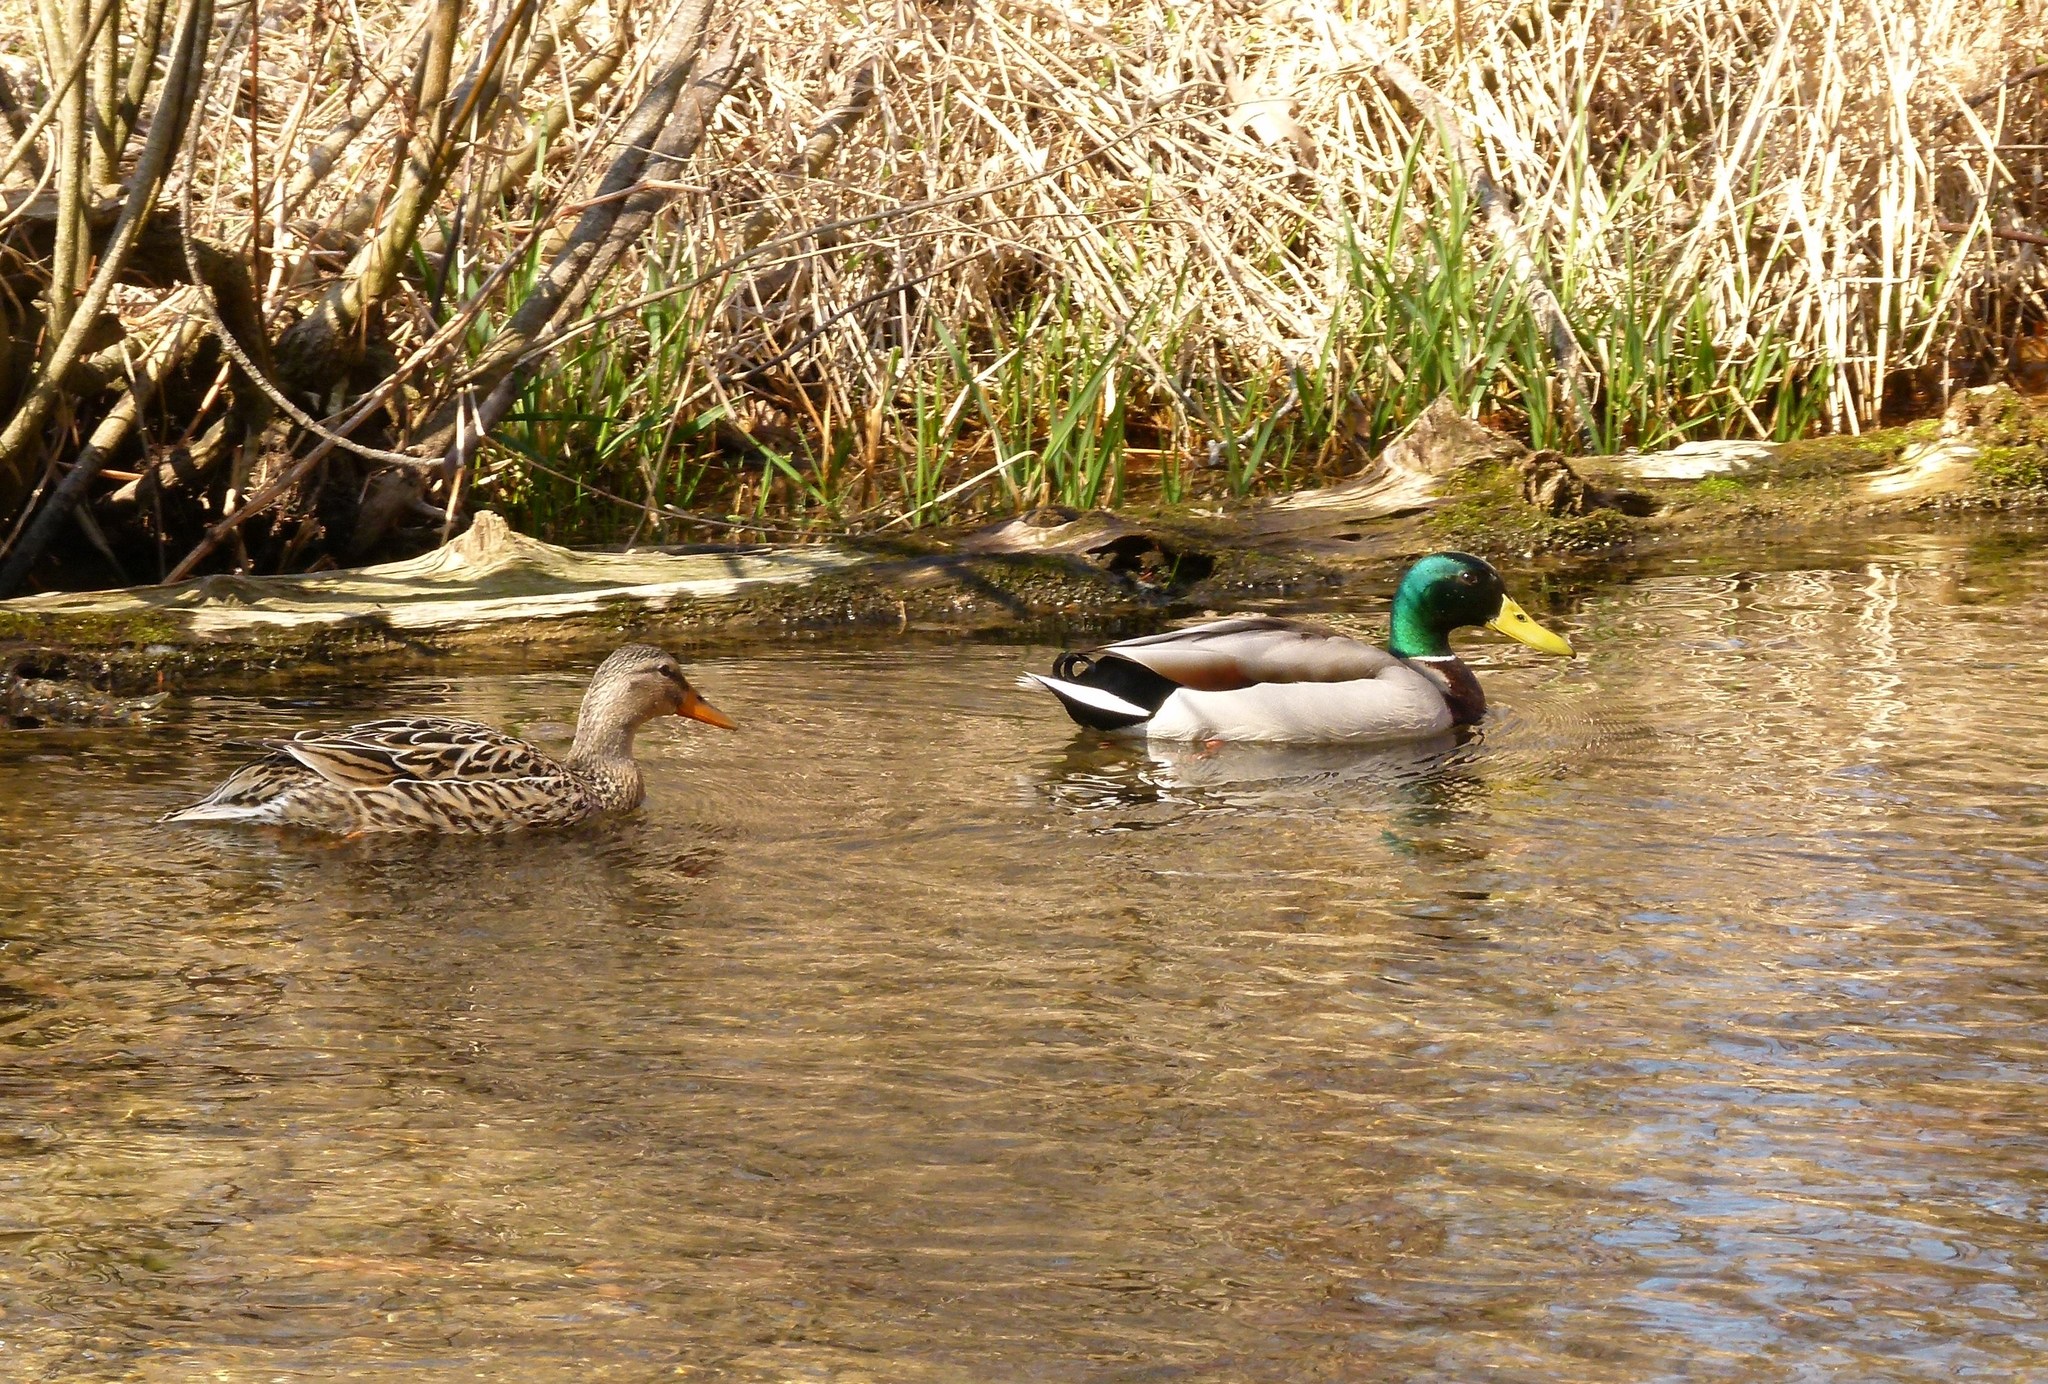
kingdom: Animalia
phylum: Chordata
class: Aves
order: Anseriformes
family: Anatidae
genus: Anas
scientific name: Anas platyrhynchos
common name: Mallard
